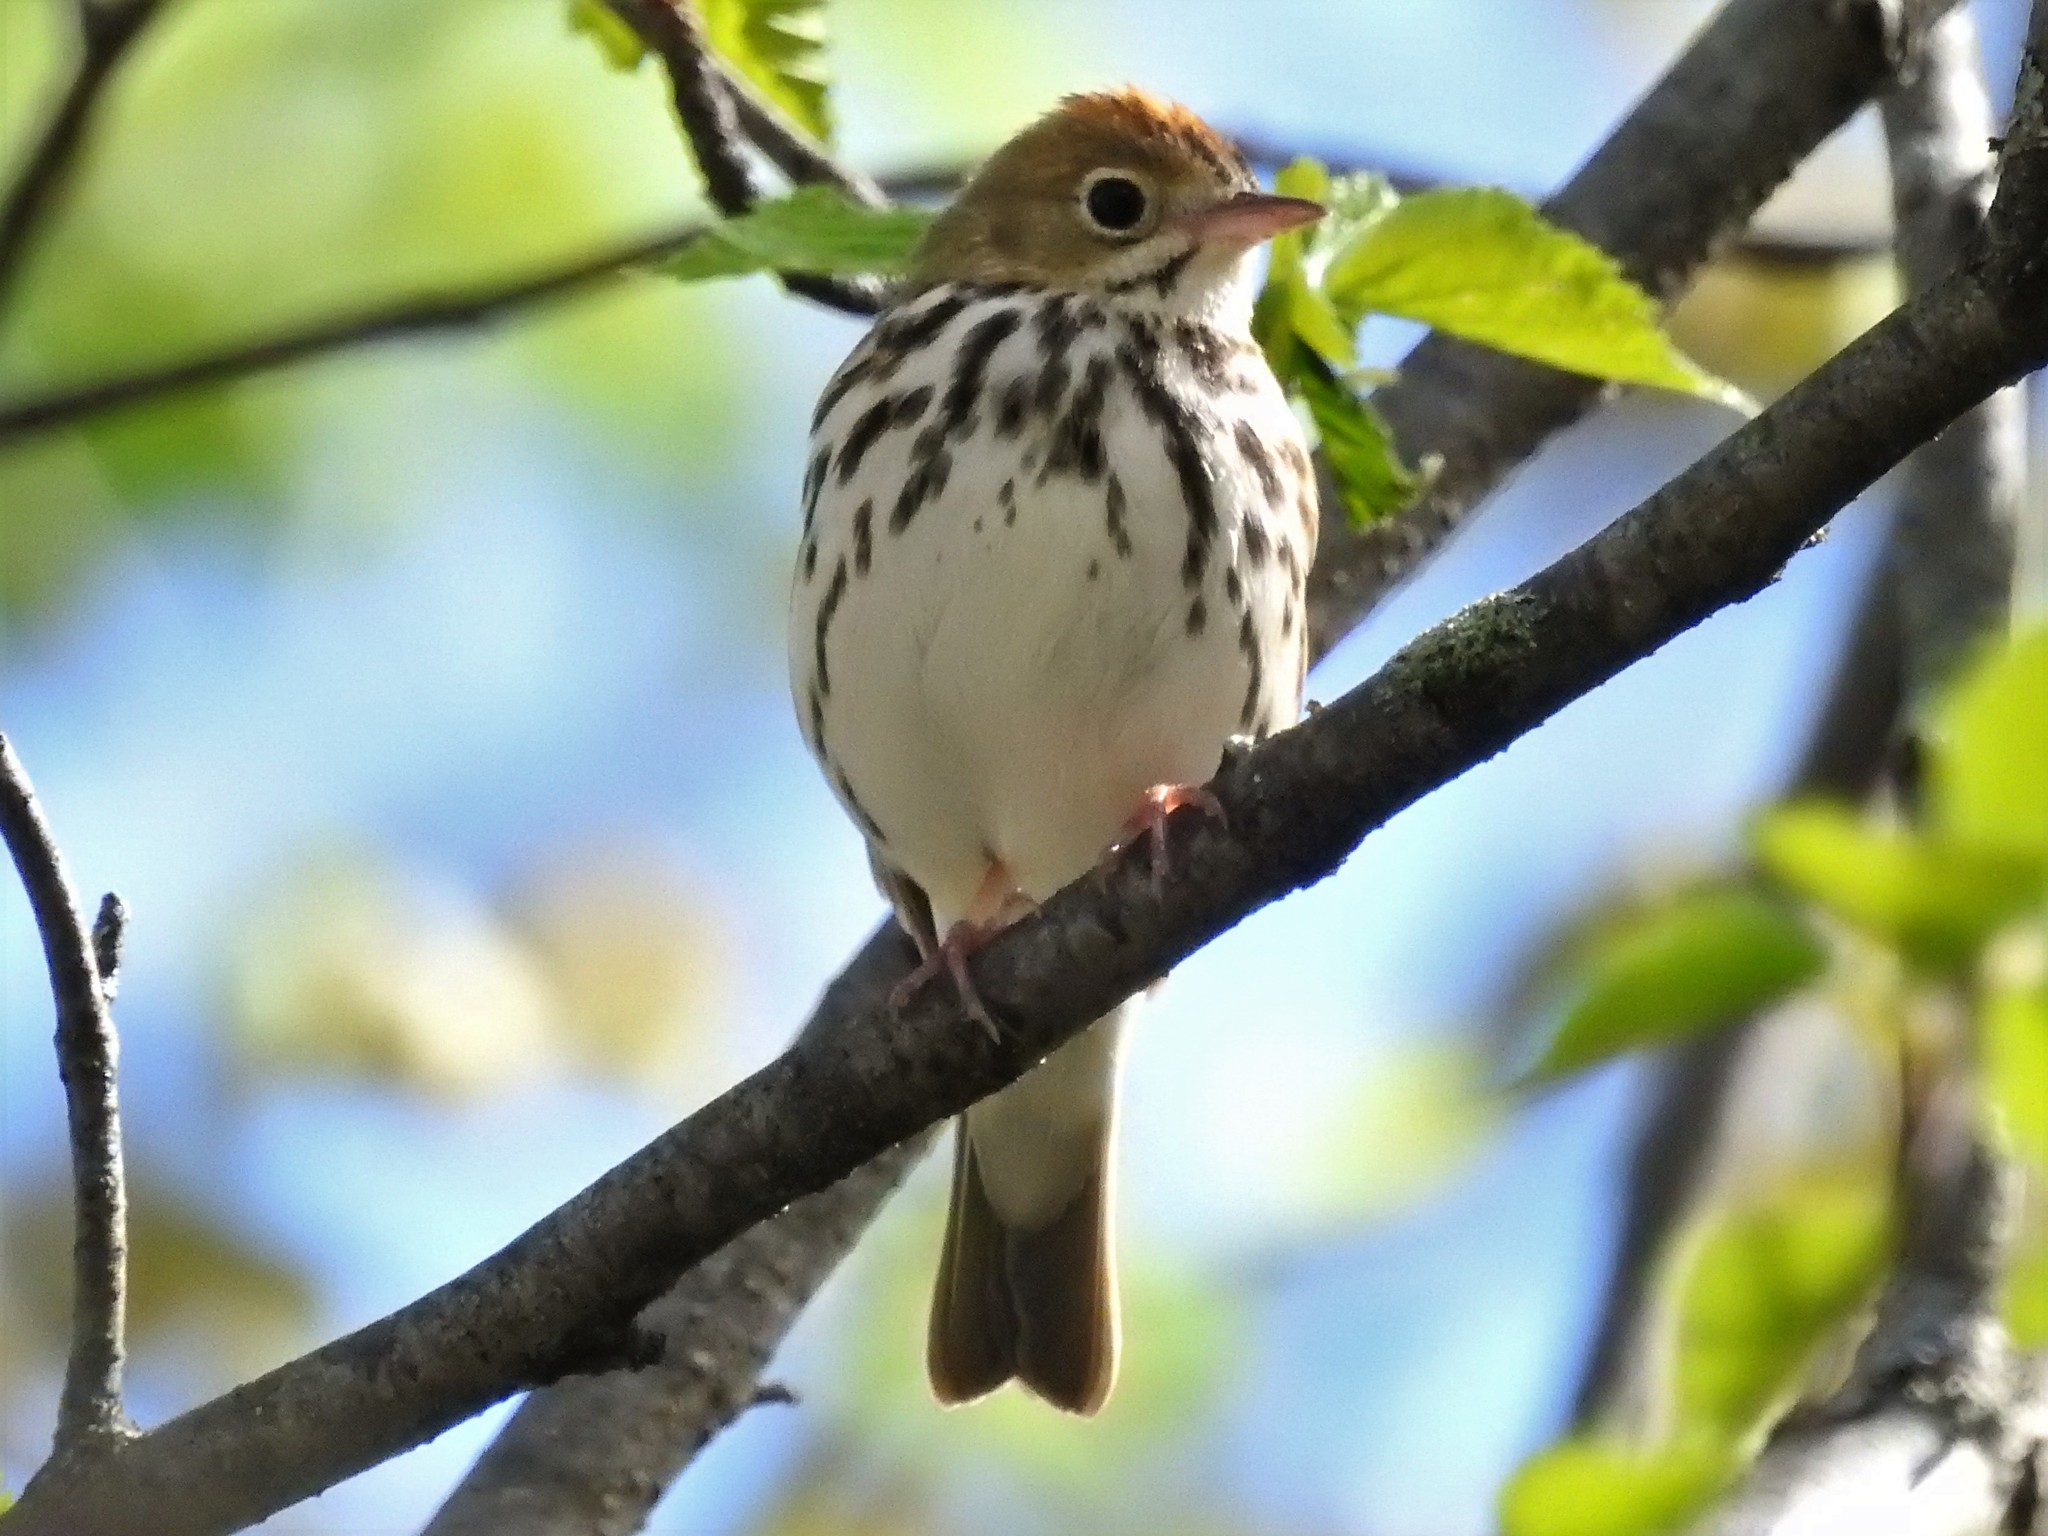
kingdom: Animalia
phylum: Chordata
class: Aves
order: Passeriformes
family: Parulidae
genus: Seiurus
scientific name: Seiurus aurocapilla
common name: Ovenbird
